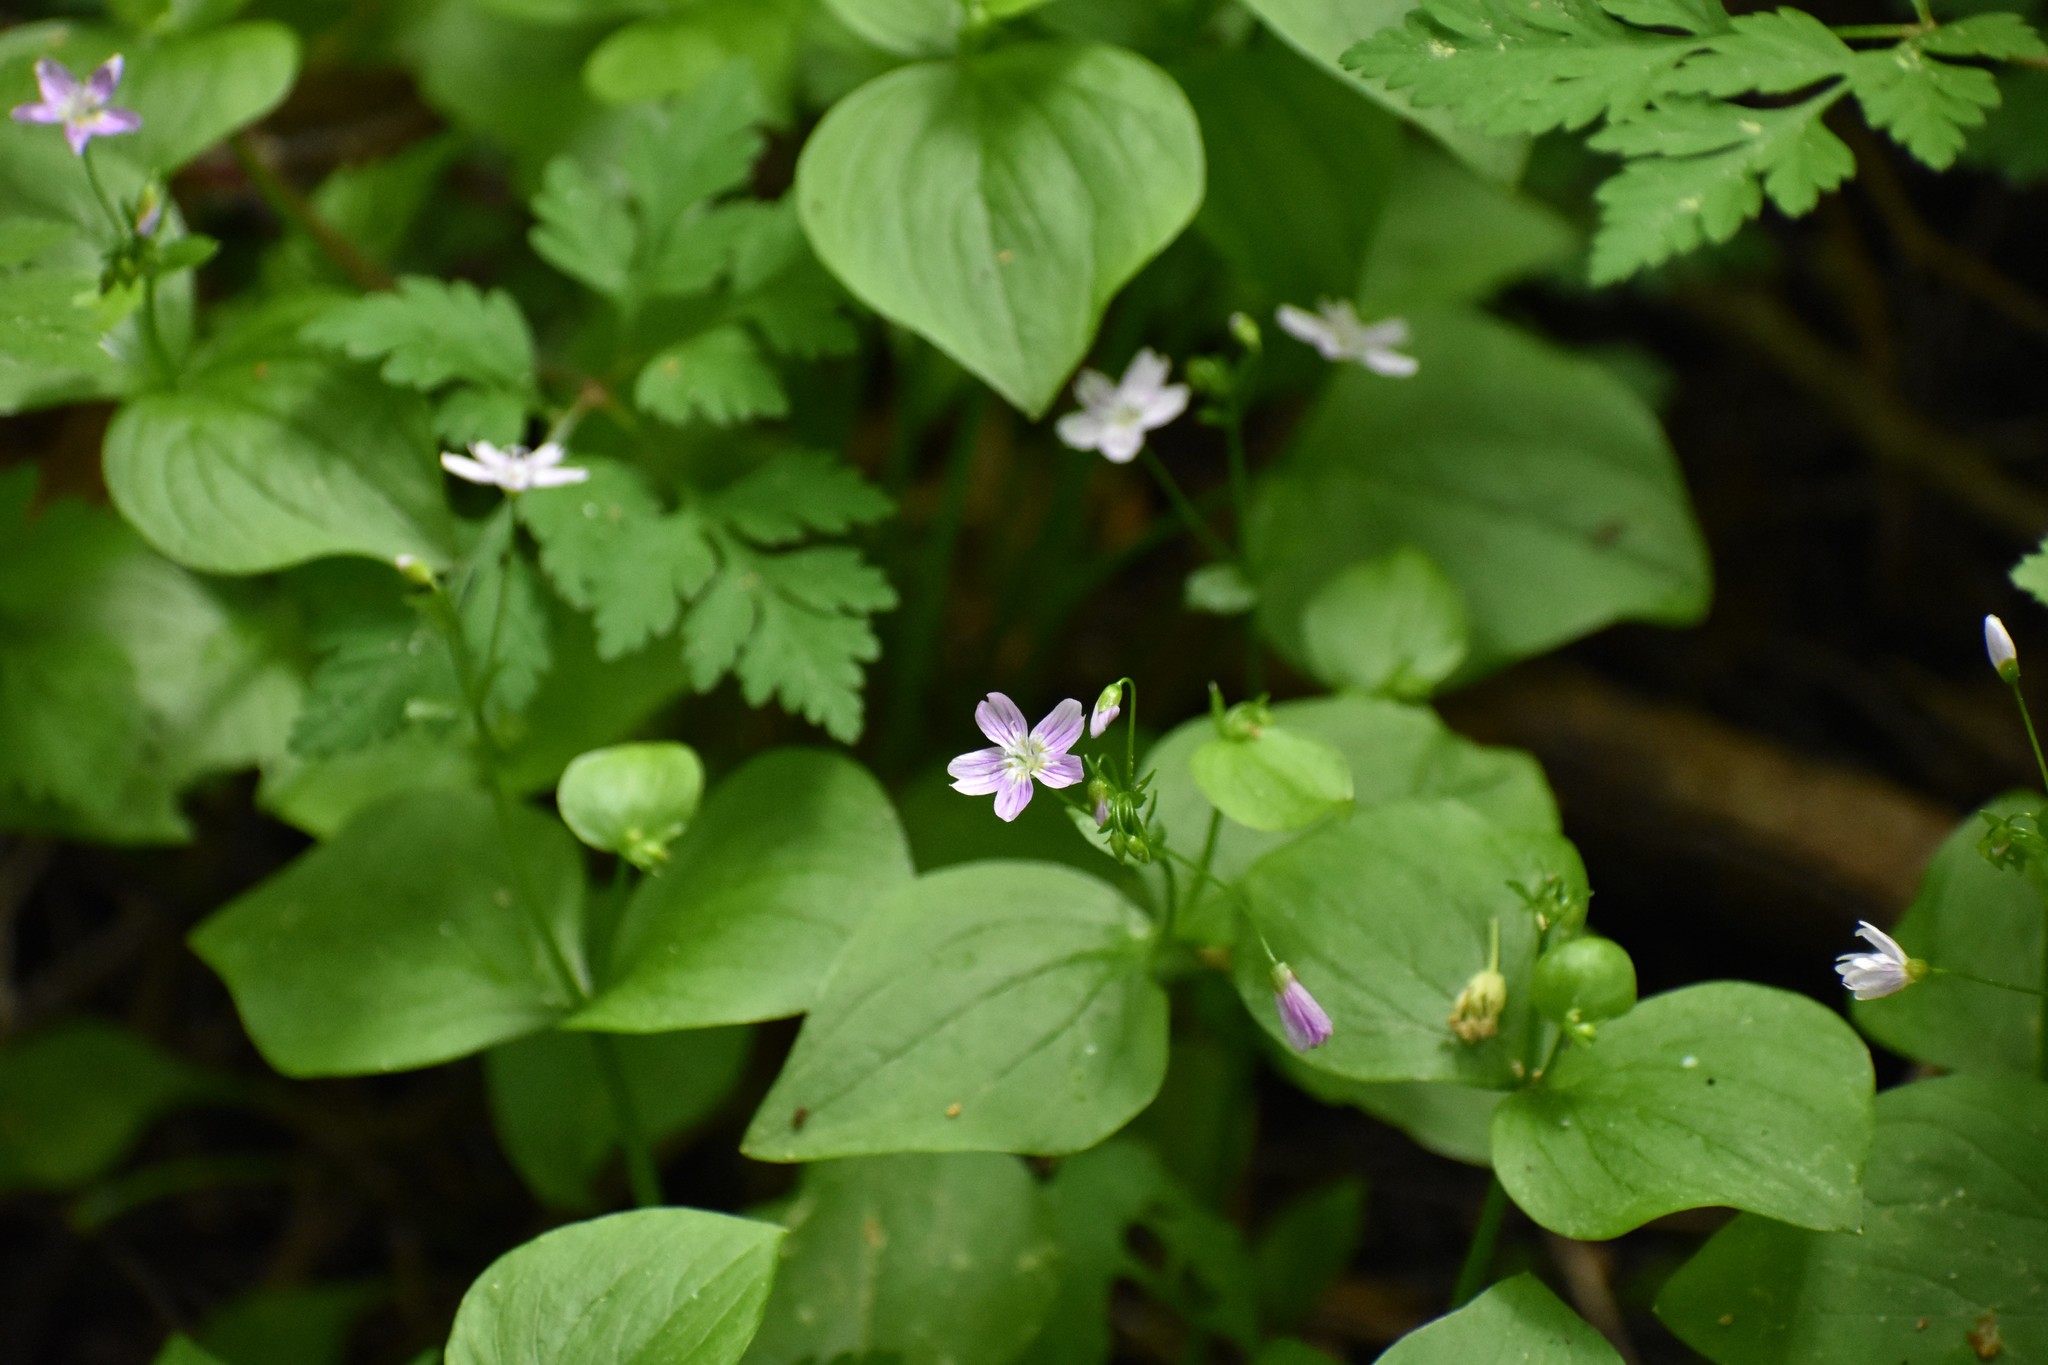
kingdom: Plantae
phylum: Tracheophyta
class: Magnoliopsida
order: Caryophyllales
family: Montiaceae
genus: Claytonia
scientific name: Claytonia sibirica
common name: Pink purslane
